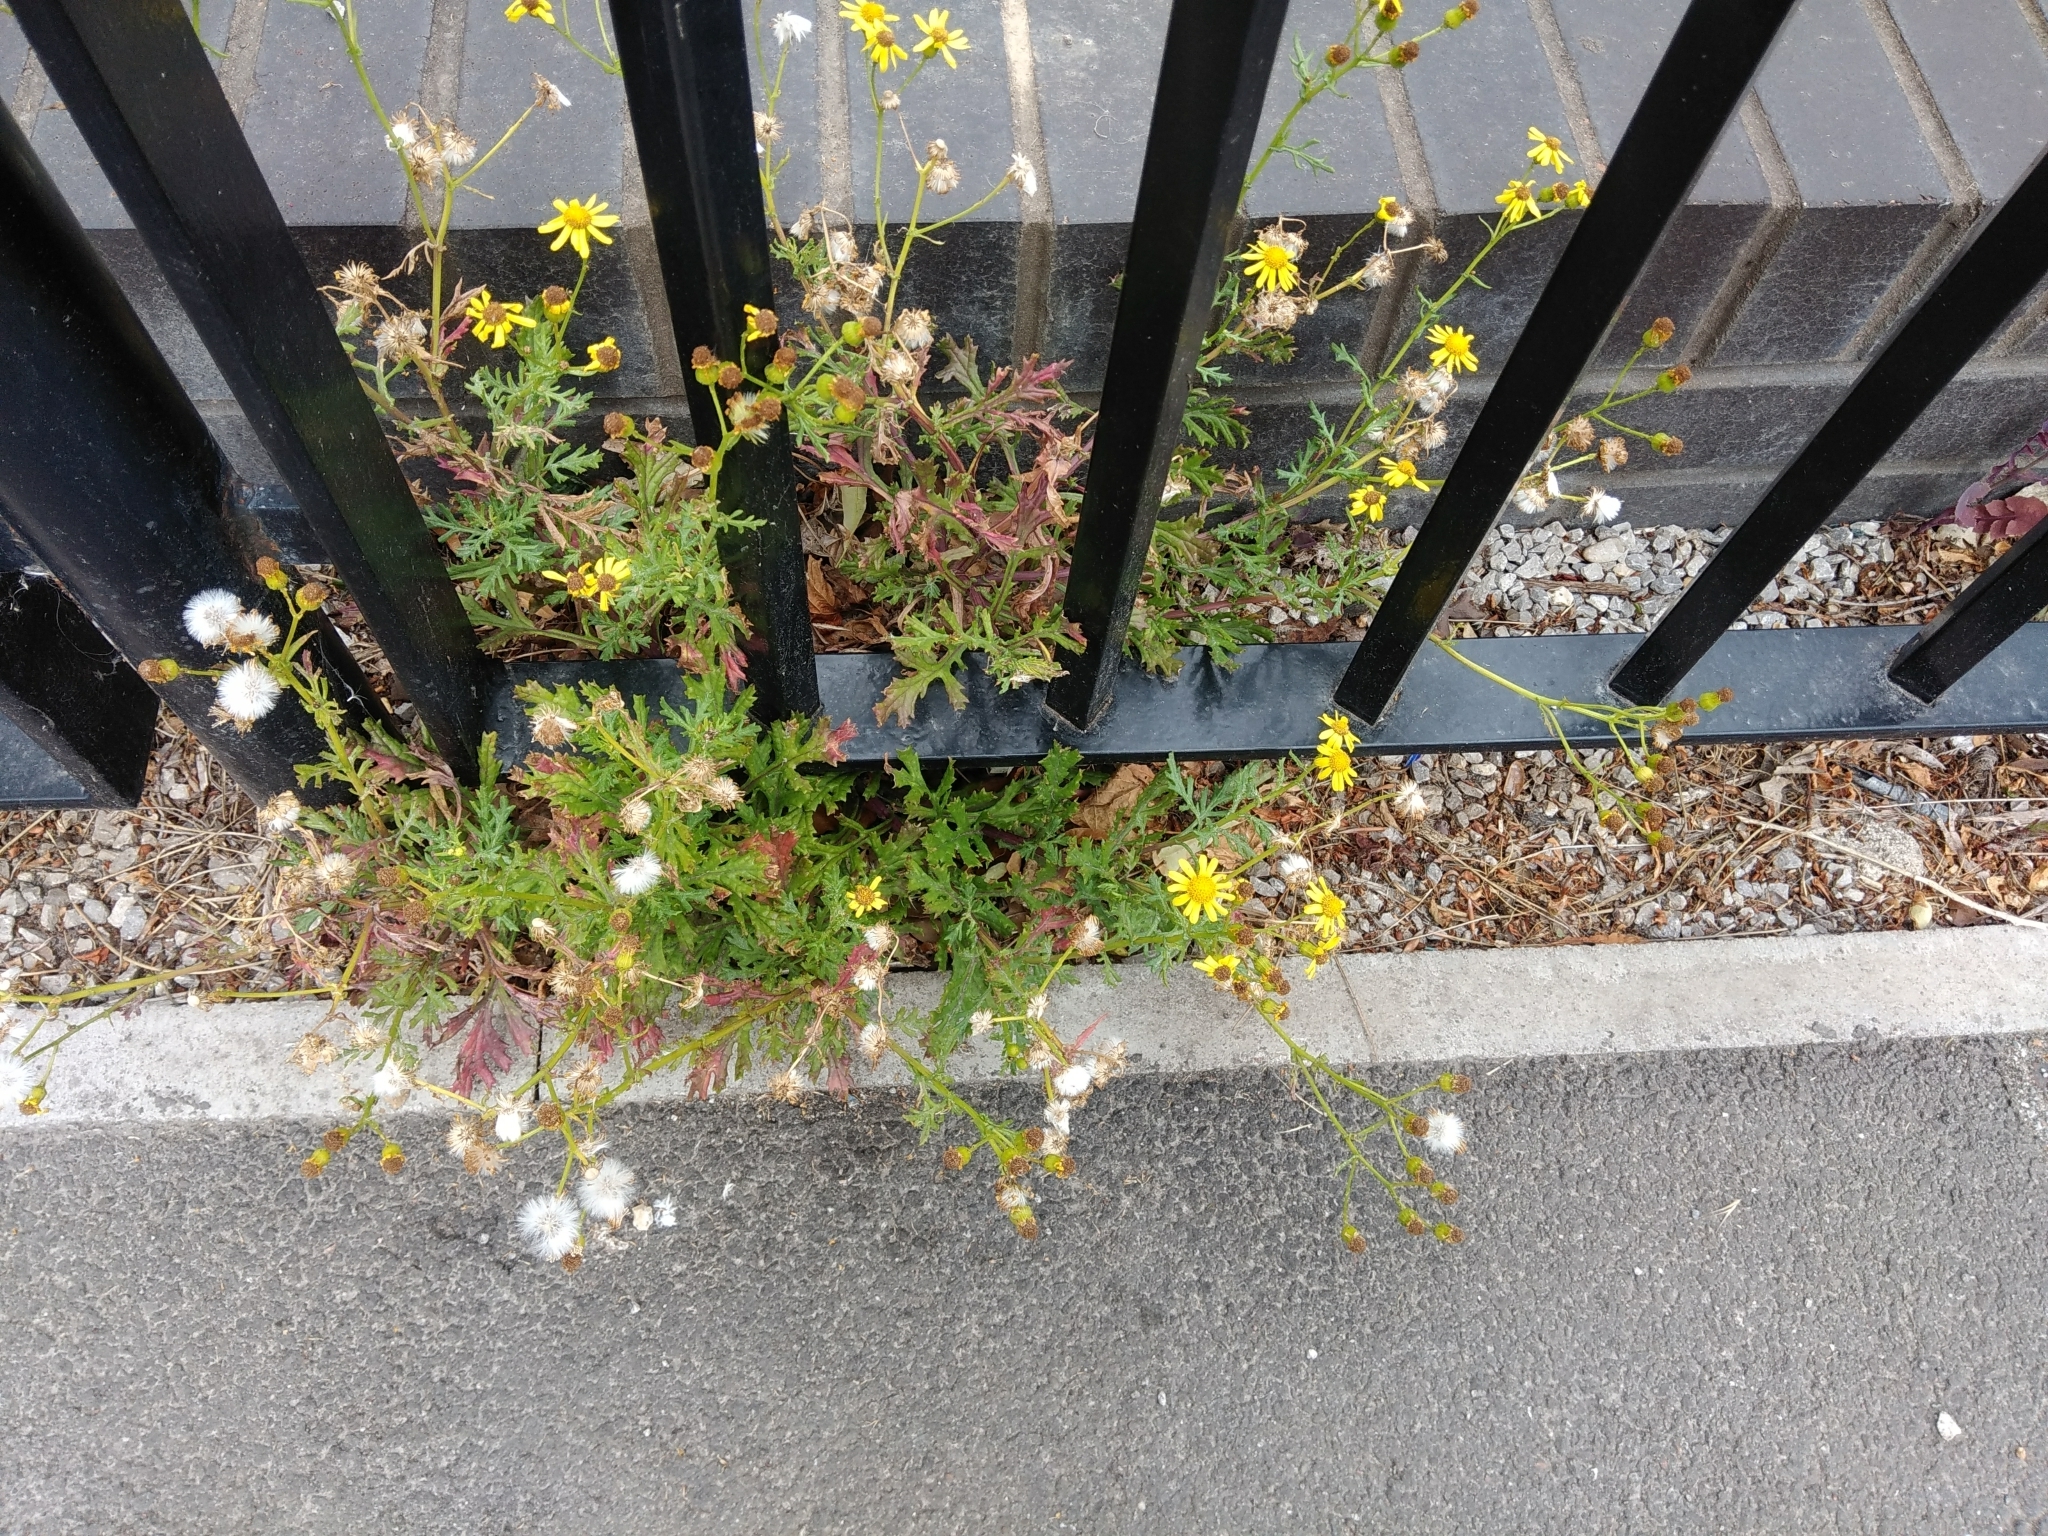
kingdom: Plantae
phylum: Tracheophyta
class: Magnoliopsida
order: Asterales
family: Asteraceae
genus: Senecio
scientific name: Senecio squalidus
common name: Oxford ragwort
